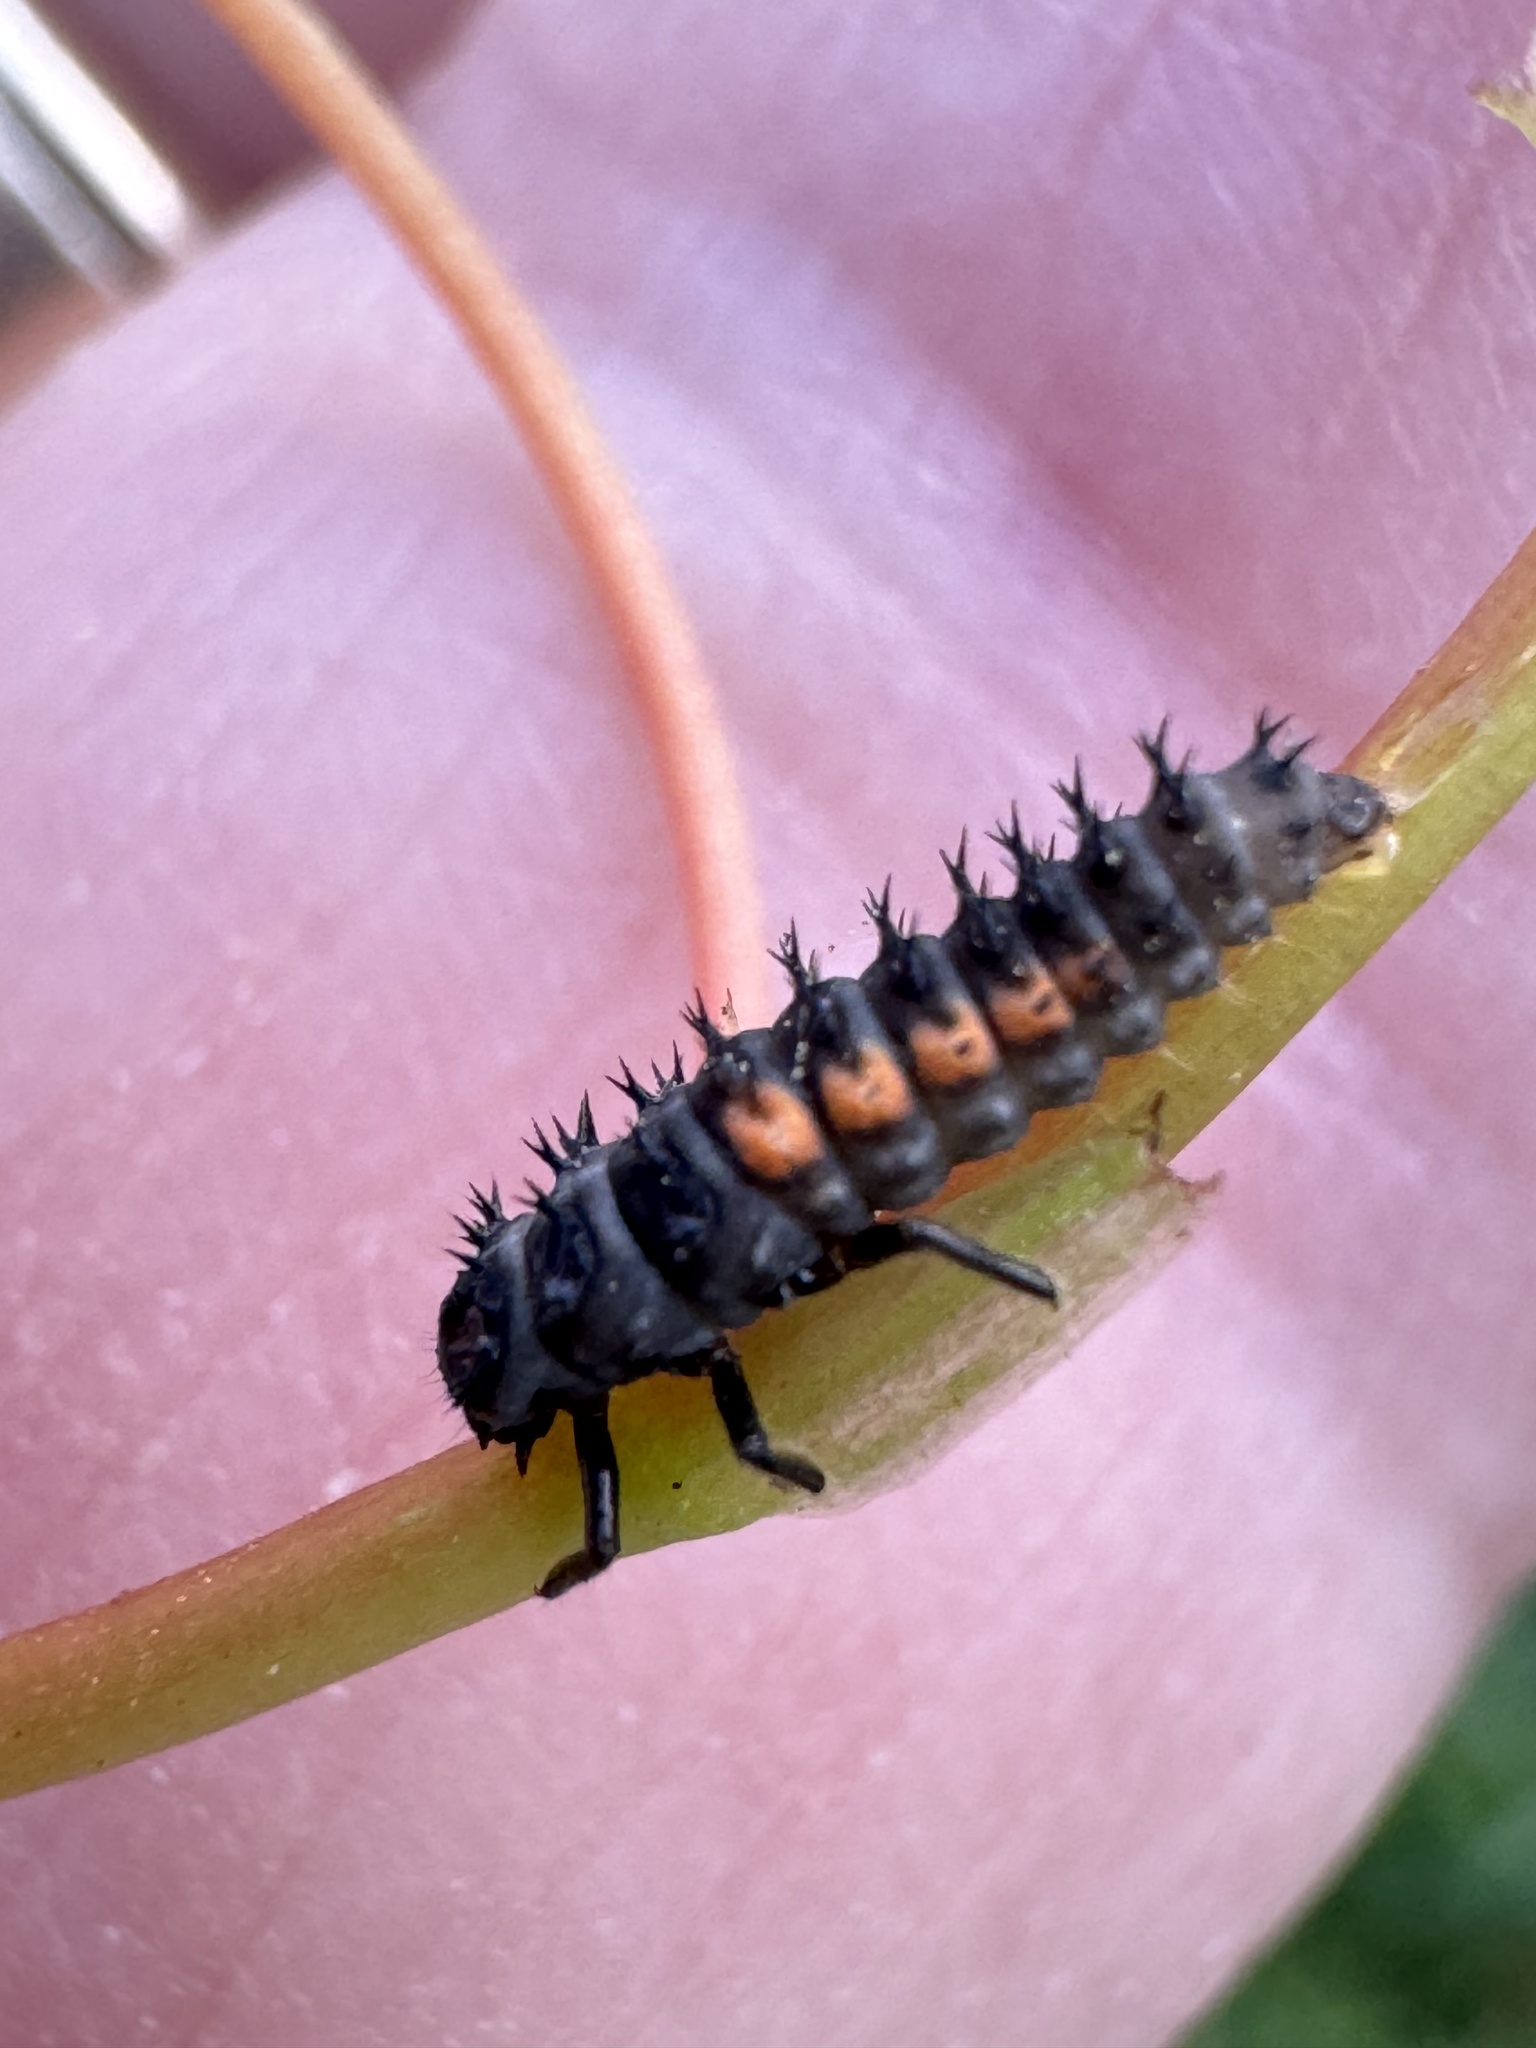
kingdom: Animalia
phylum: Arthropoda
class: Insecta
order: Coleoptera
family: Coccinellidae
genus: Harmonia
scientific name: Harmonia axyridis
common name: Harlequin ladybird
